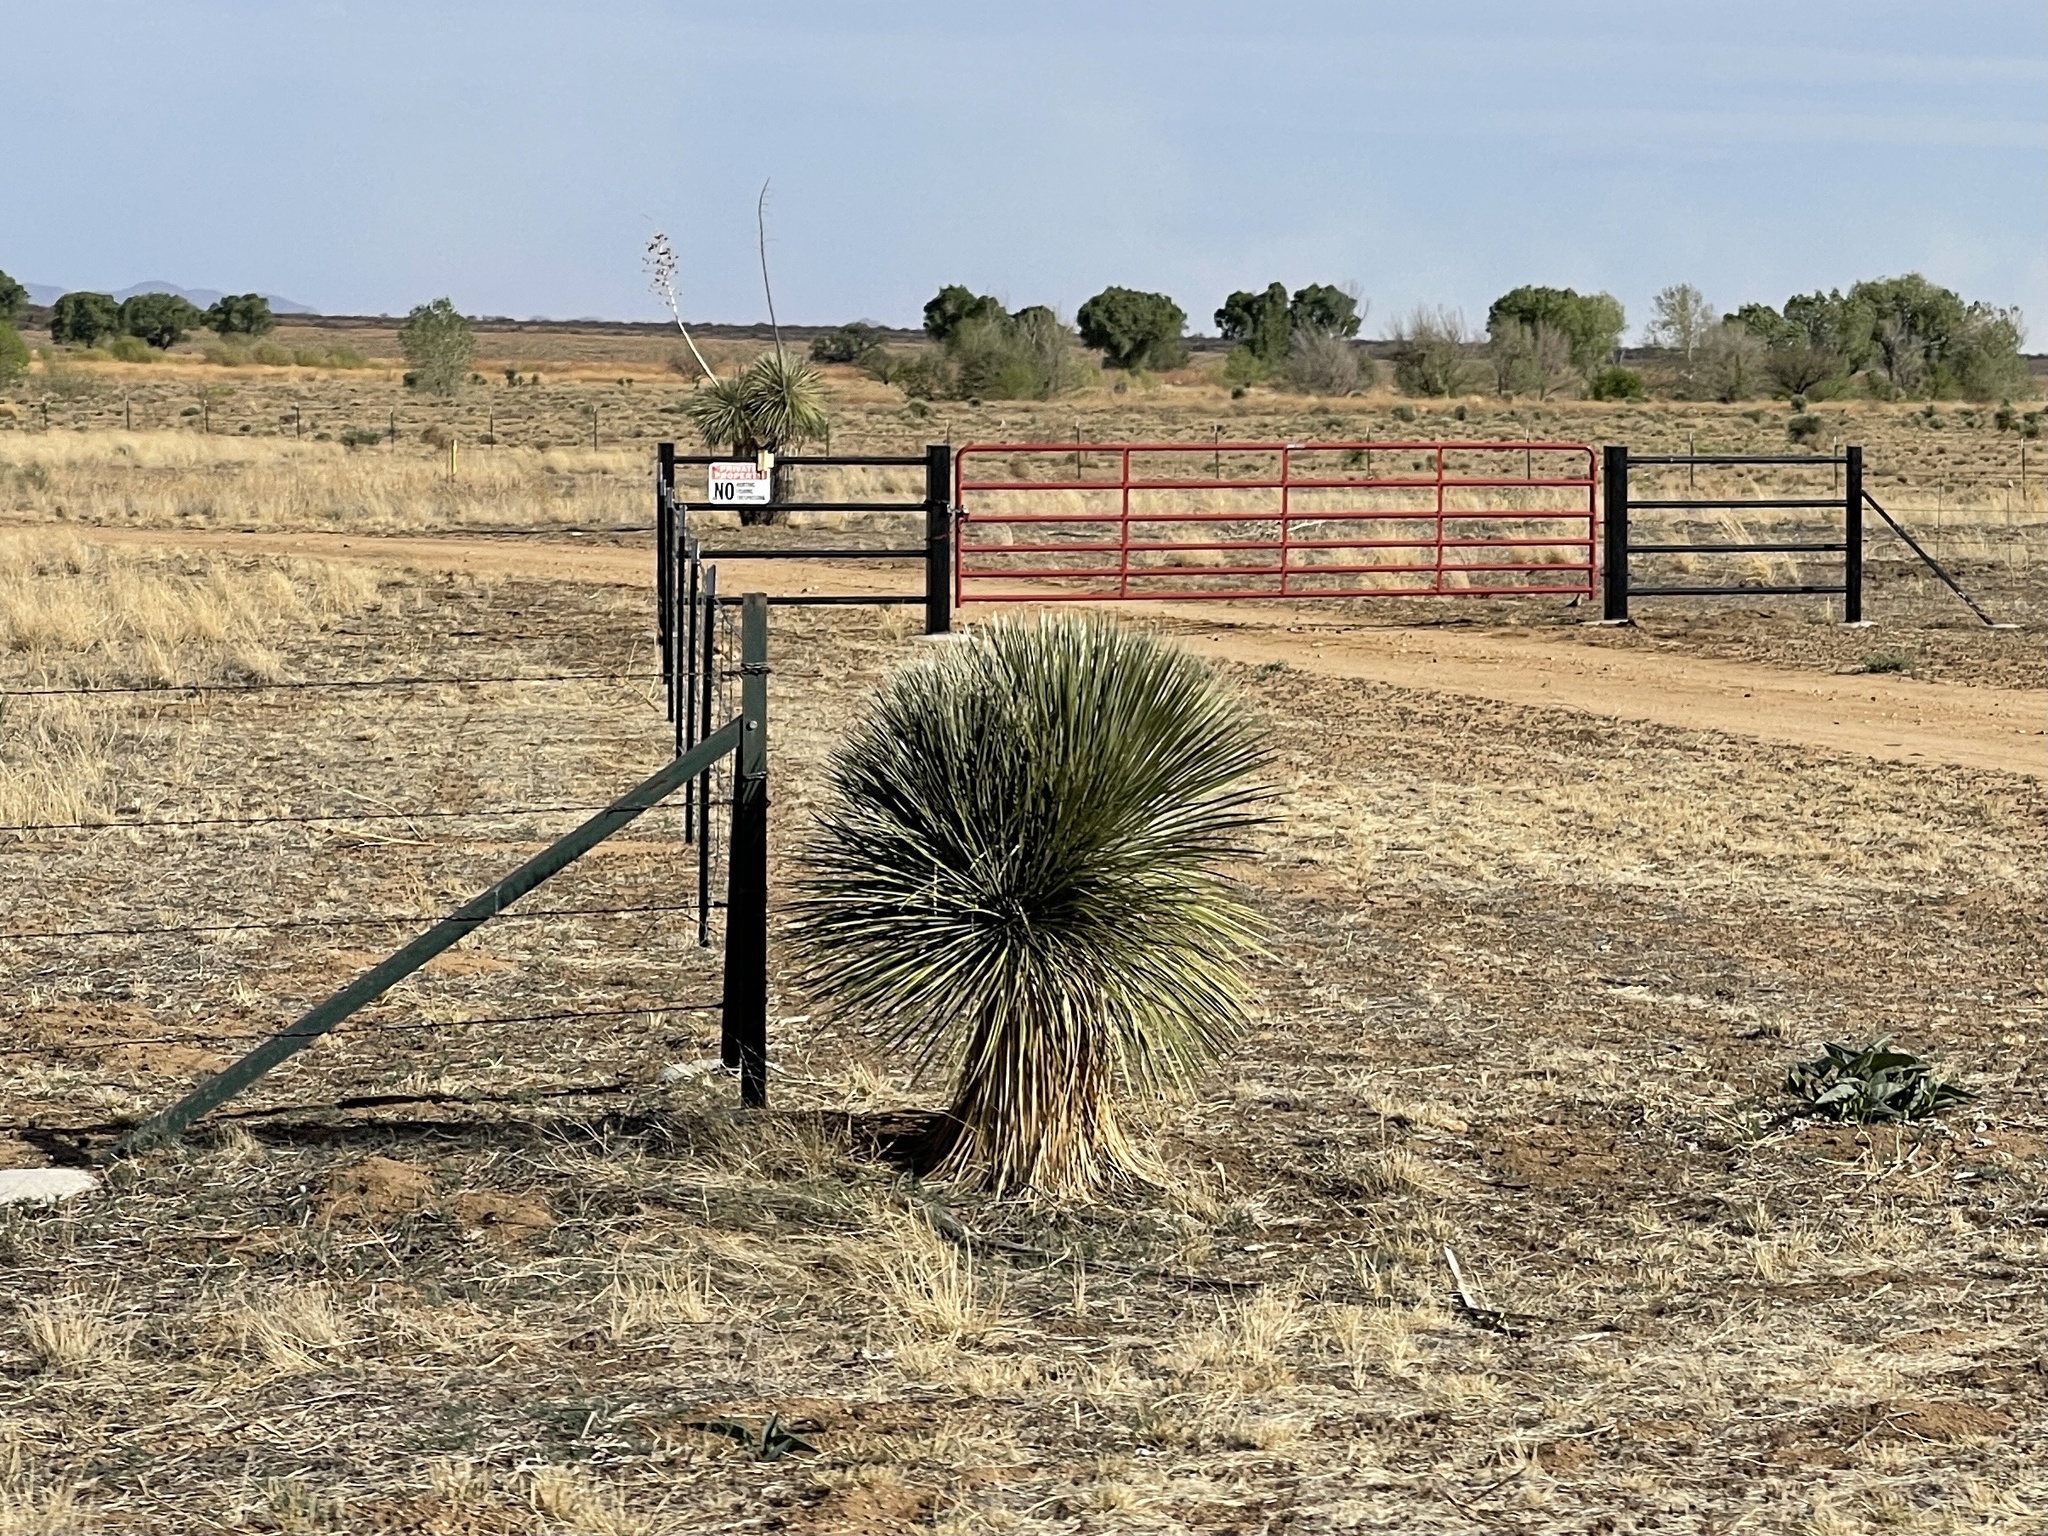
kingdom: Plantae
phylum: Tracheophyta
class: Liliopsida
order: Asparagales
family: Asparagaceae
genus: Yucca
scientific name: Yucca elata
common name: Palmella
